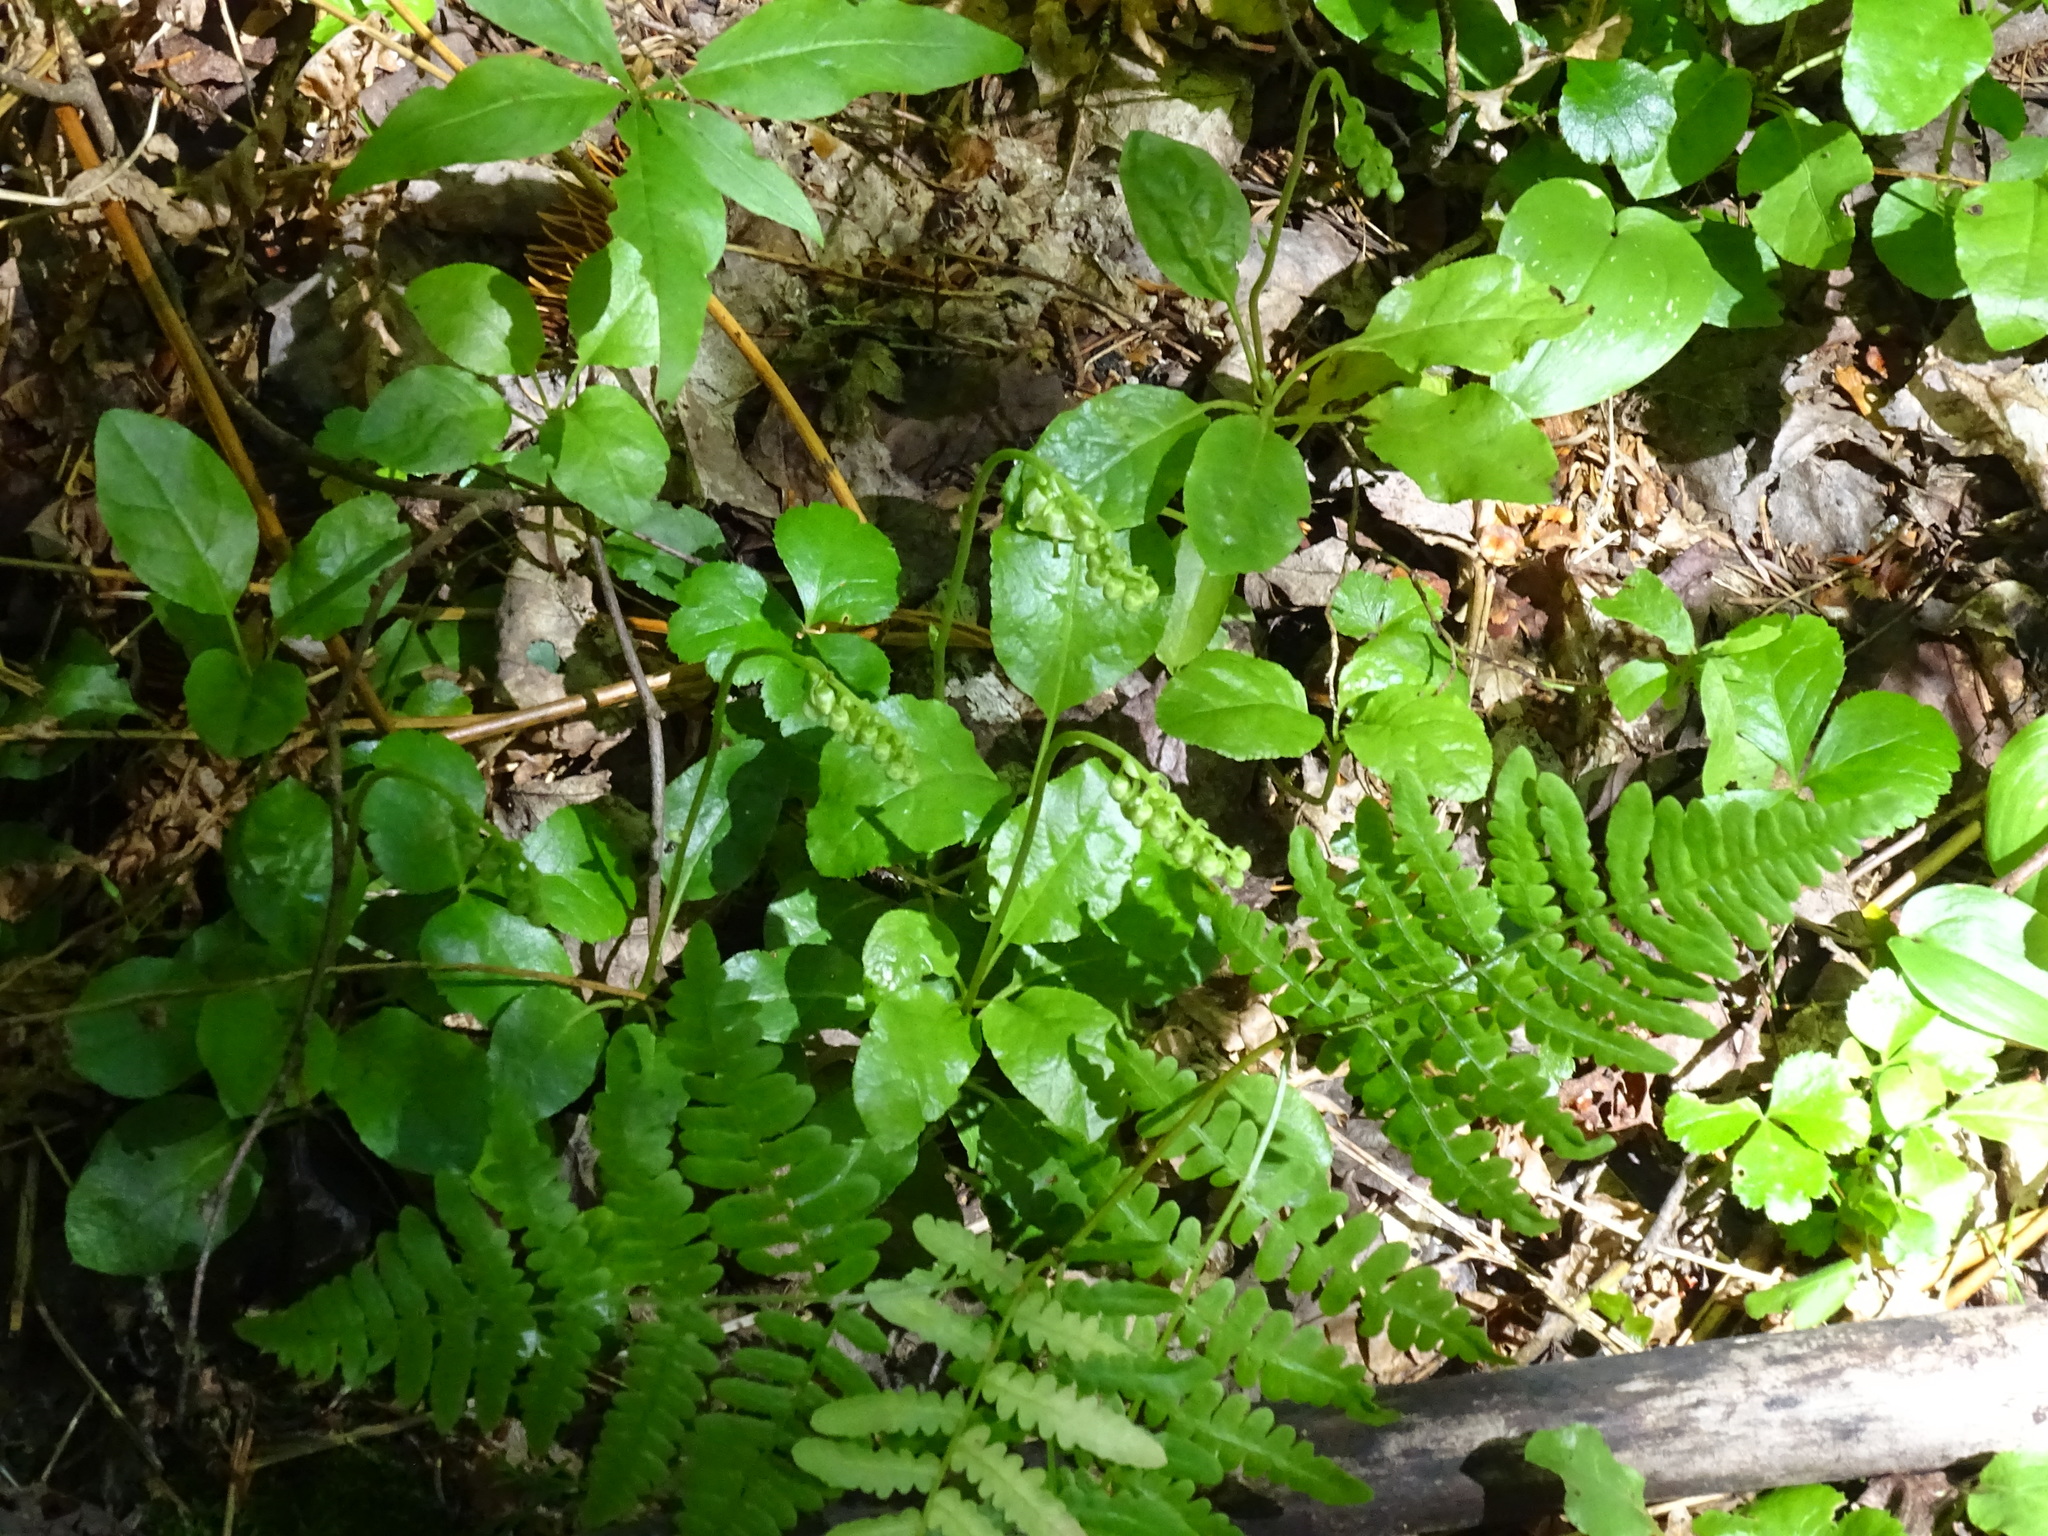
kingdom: Plantae
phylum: Tracheophyta
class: Magnoliopsida
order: Ericales
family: Ericaceae
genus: Orthilia
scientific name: Orthilia secunda
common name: One-sided orthilia
